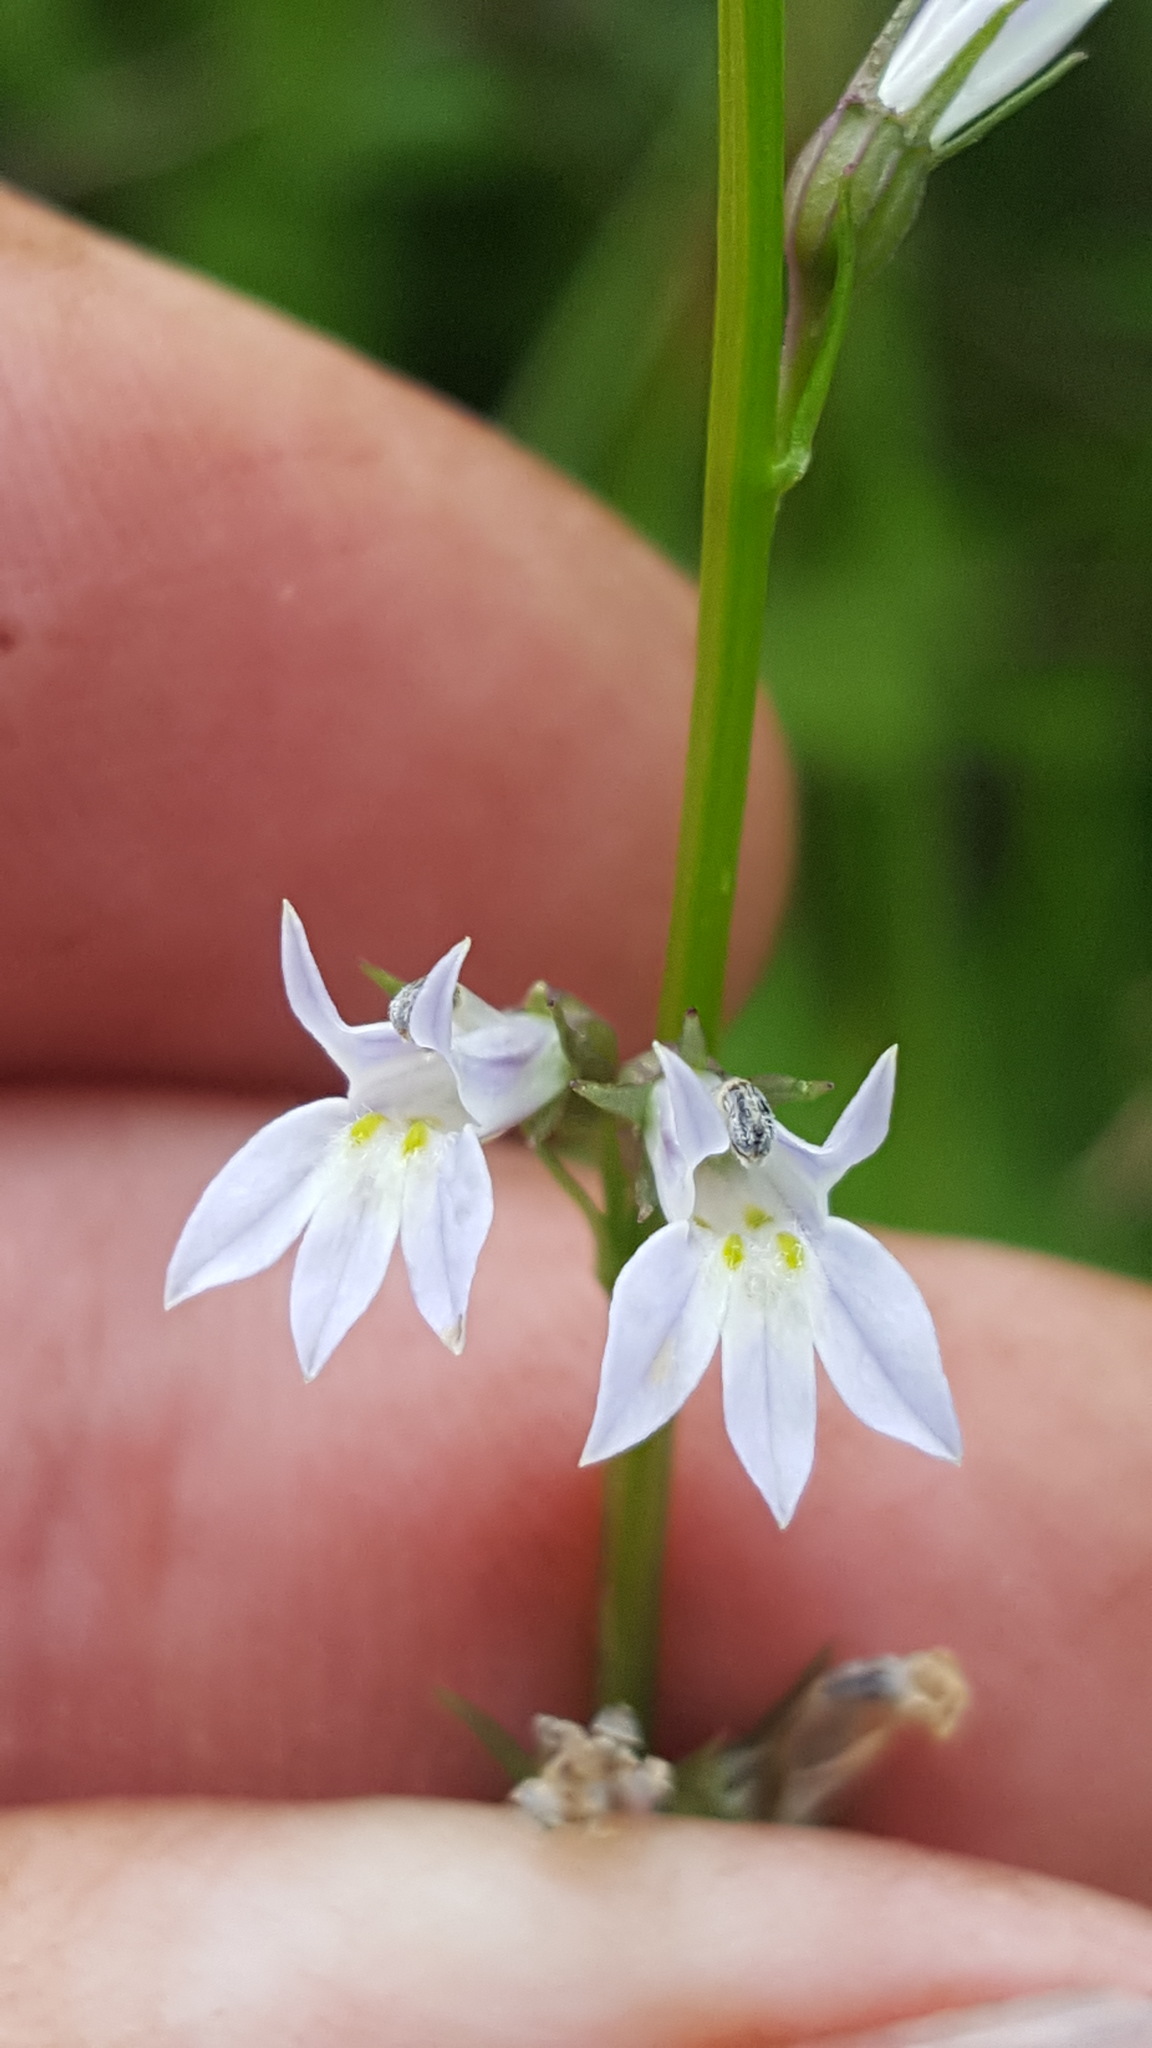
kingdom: Plantae
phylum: Tracheophyta
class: Magnoliopsida
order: Asterales
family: Campanulaceae
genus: Lobelia
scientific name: Lobelia inflata
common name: Indian tobacco
